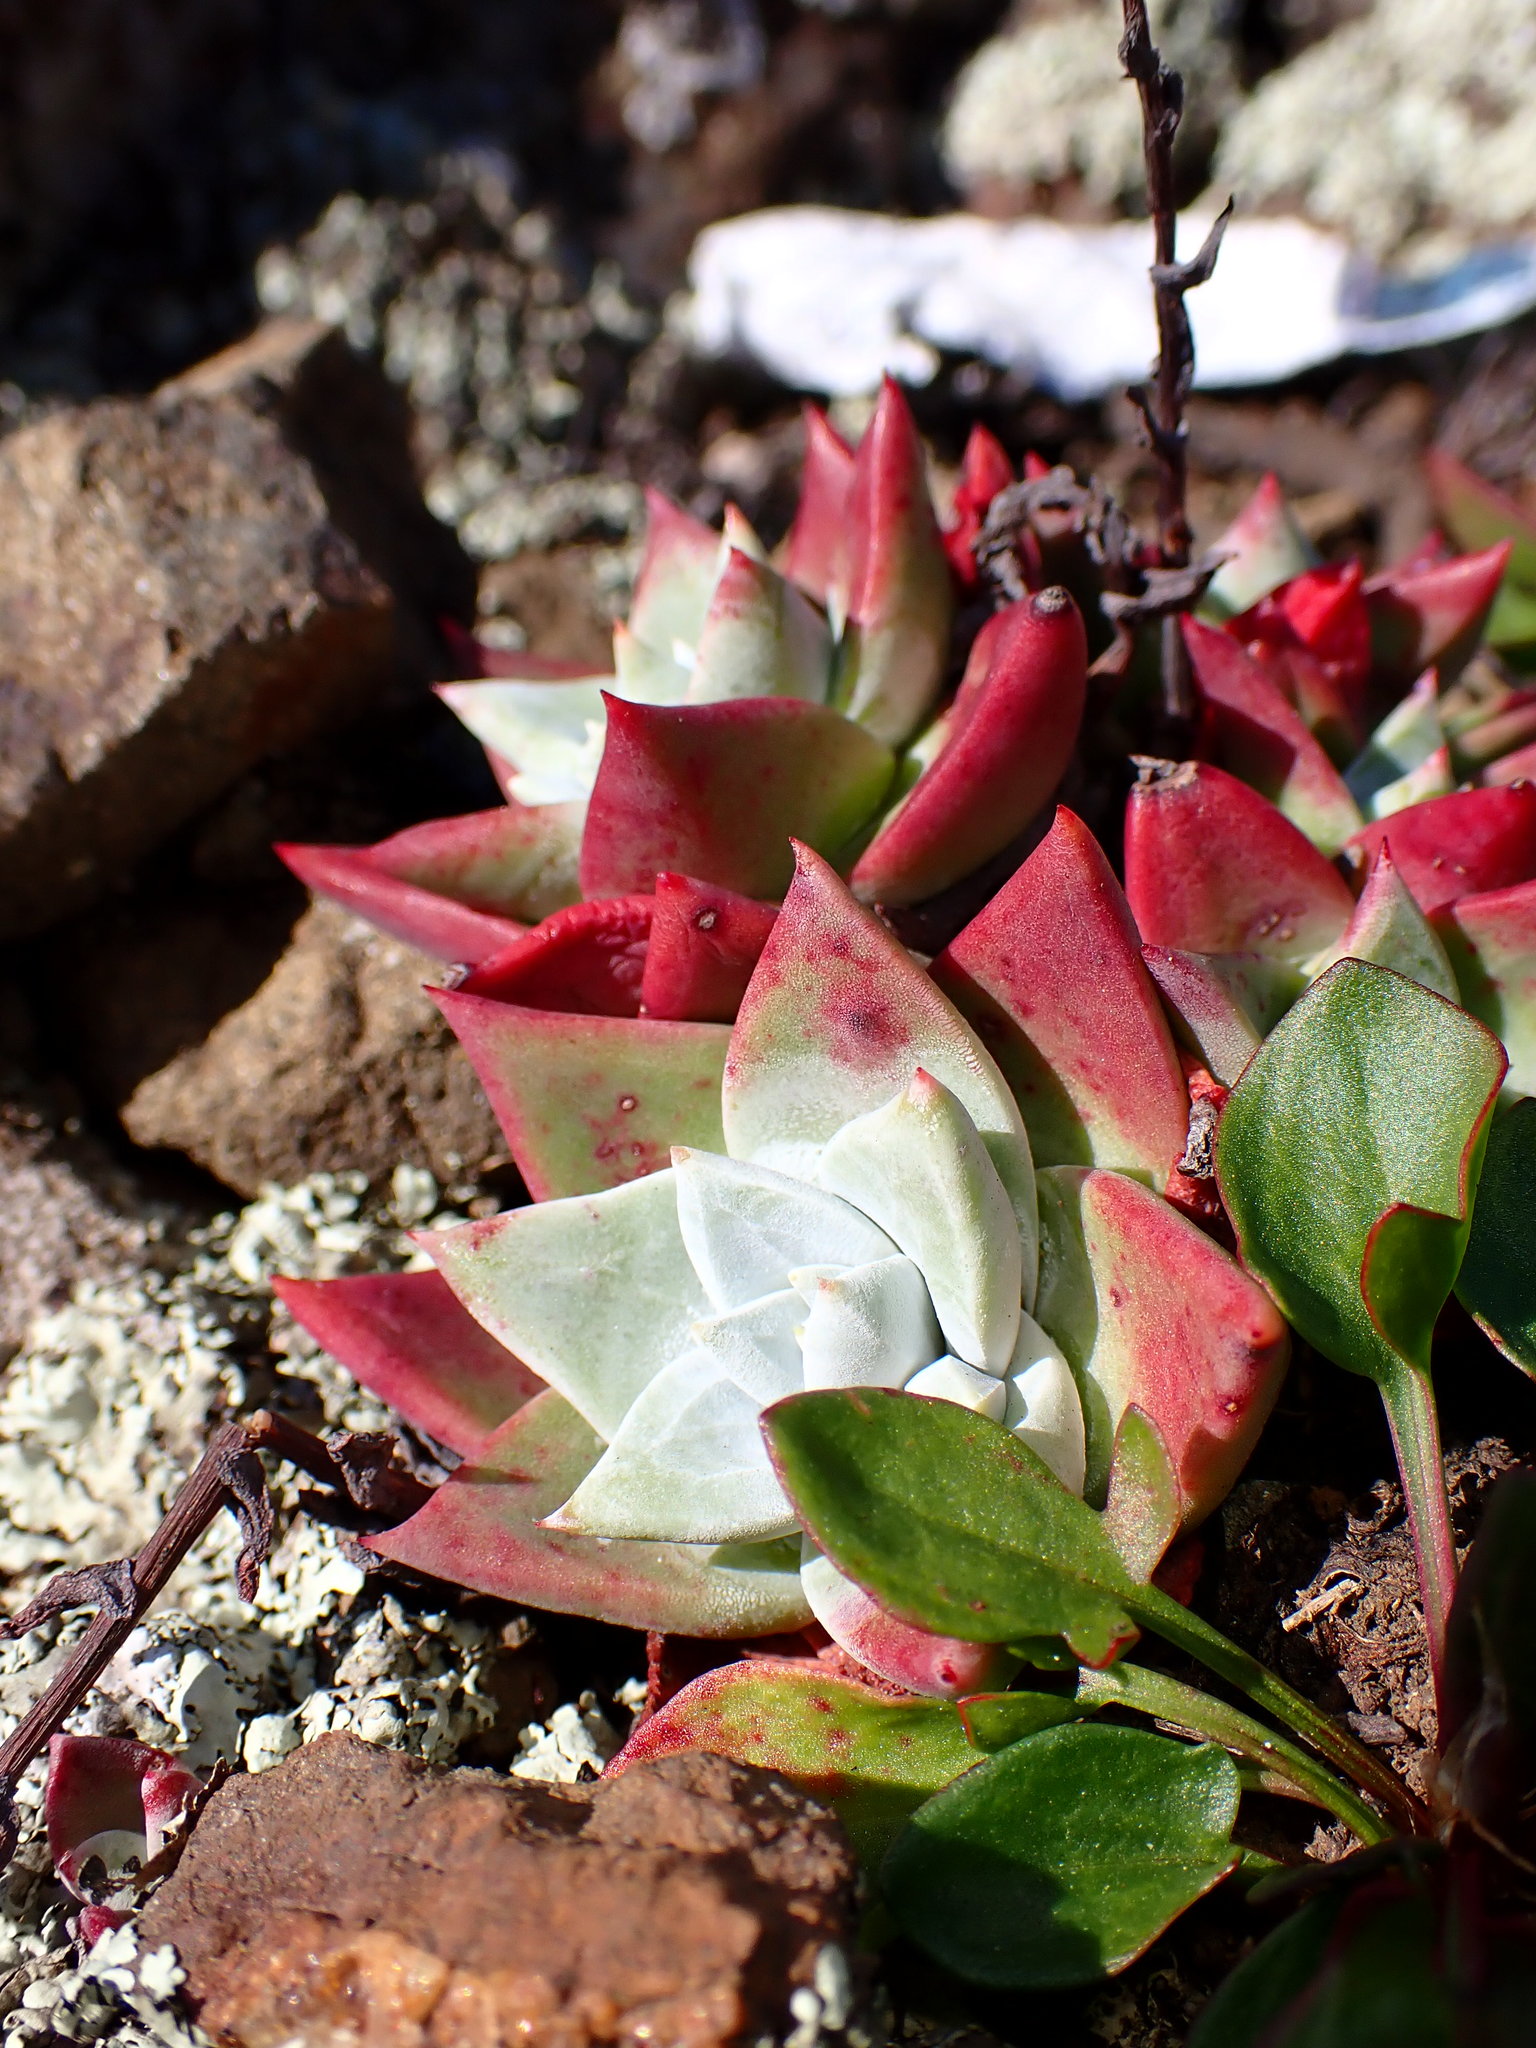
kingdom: Plantae
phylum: Tracheophyta
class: Magnoliopsida
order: Saxifragales
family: Crassulaceae
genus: Dudleya
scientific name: Dudleya farinosa
